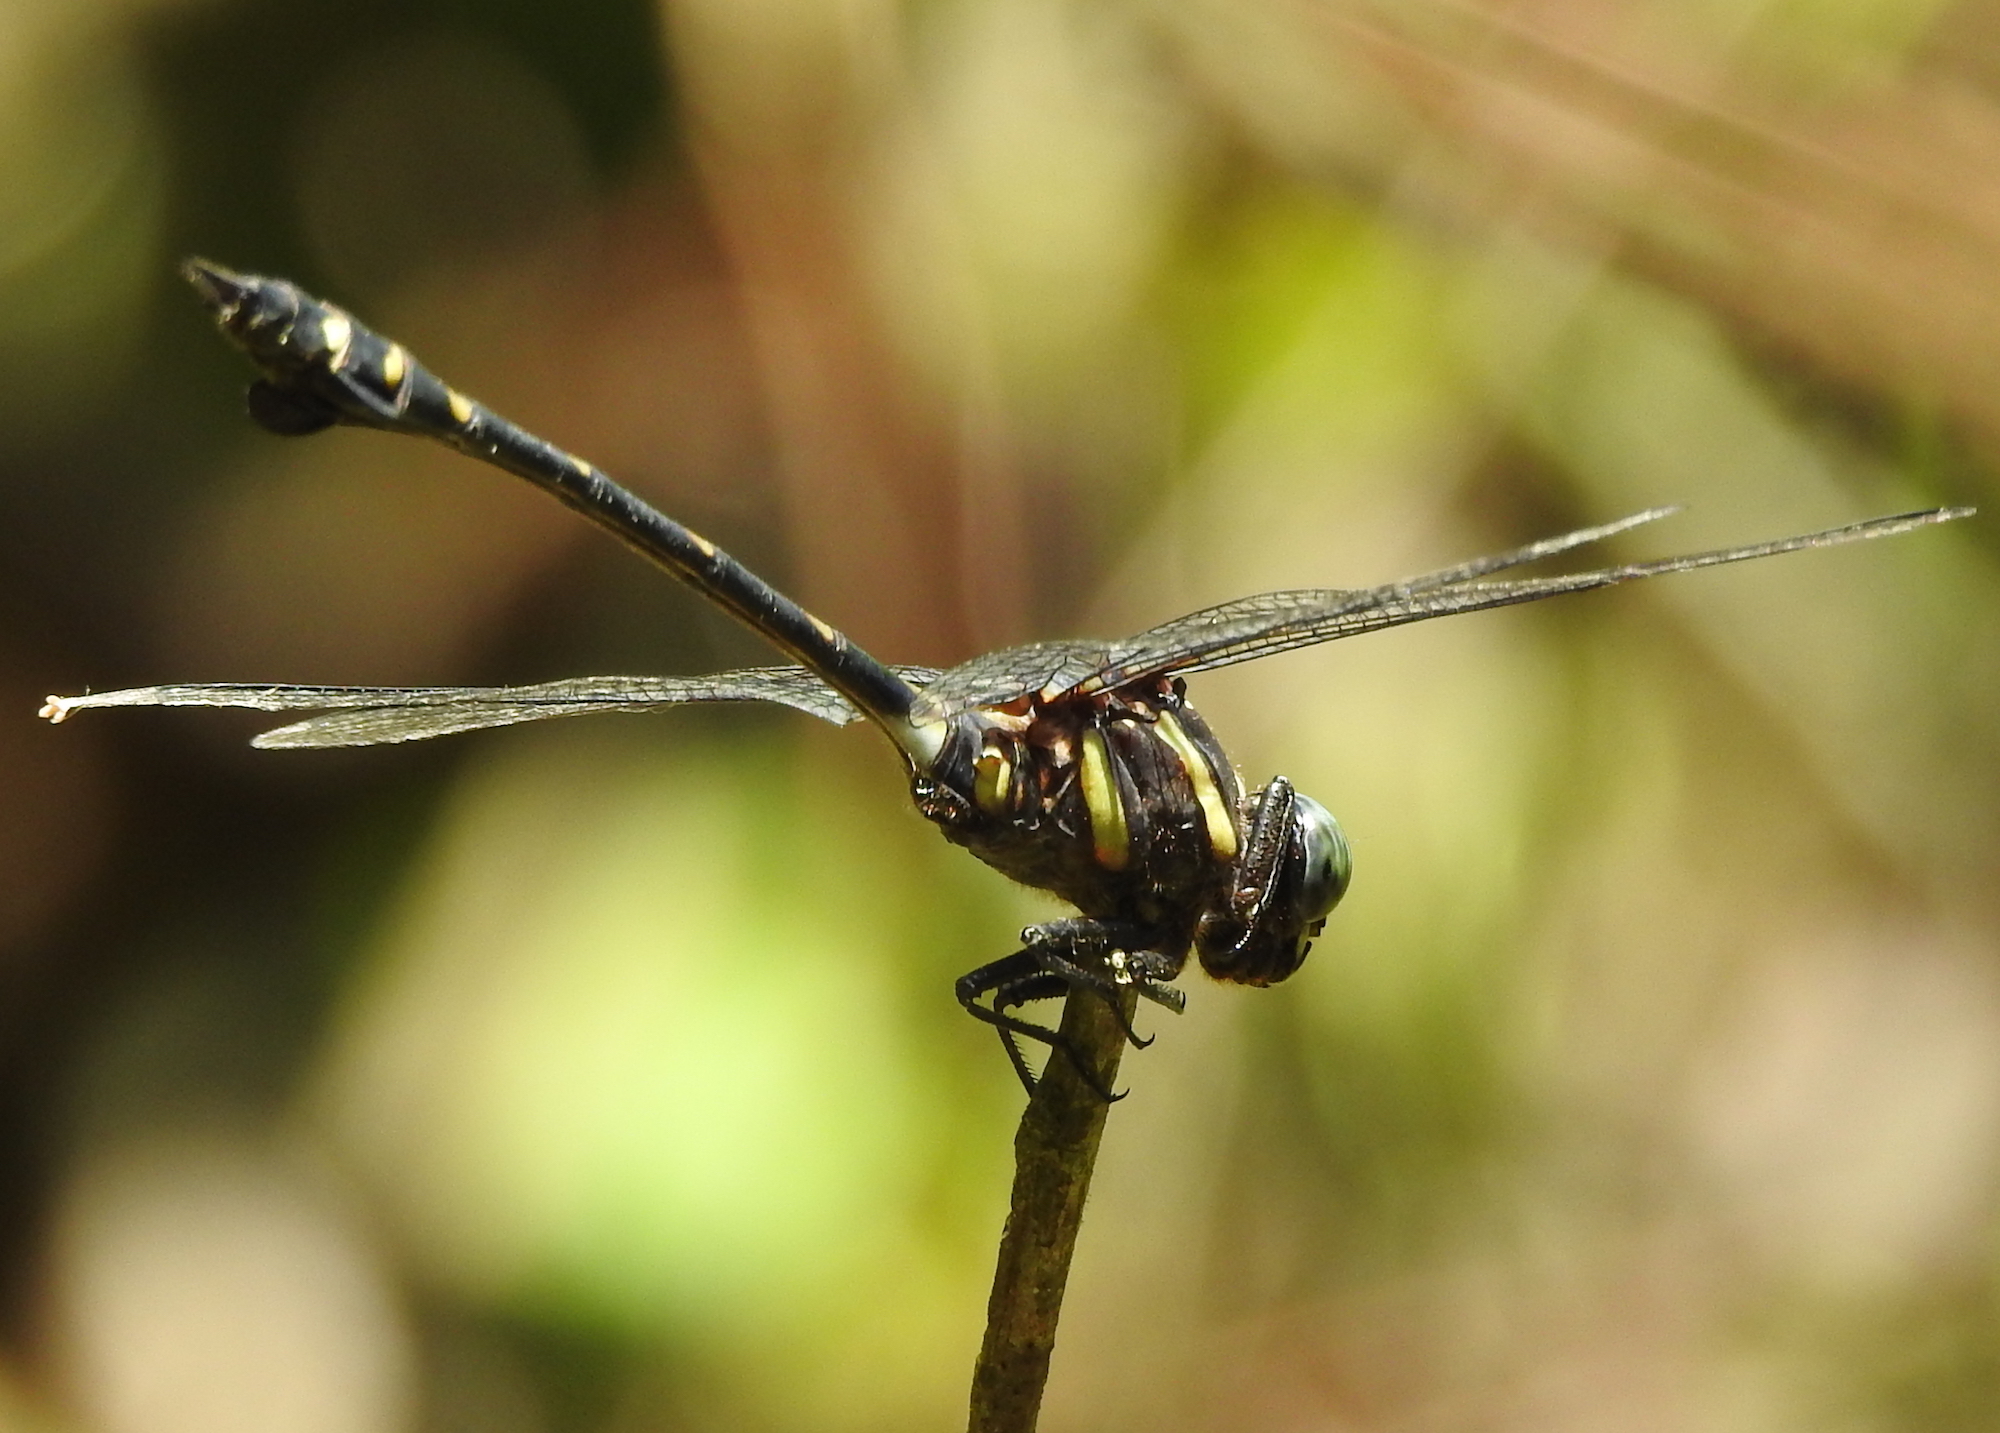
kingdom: Animalia
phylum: Arthropoda
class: Insecta
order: Odonata
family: Gomphidae
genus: Ictinogomphus
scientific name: Ictinogomphus decoratus
